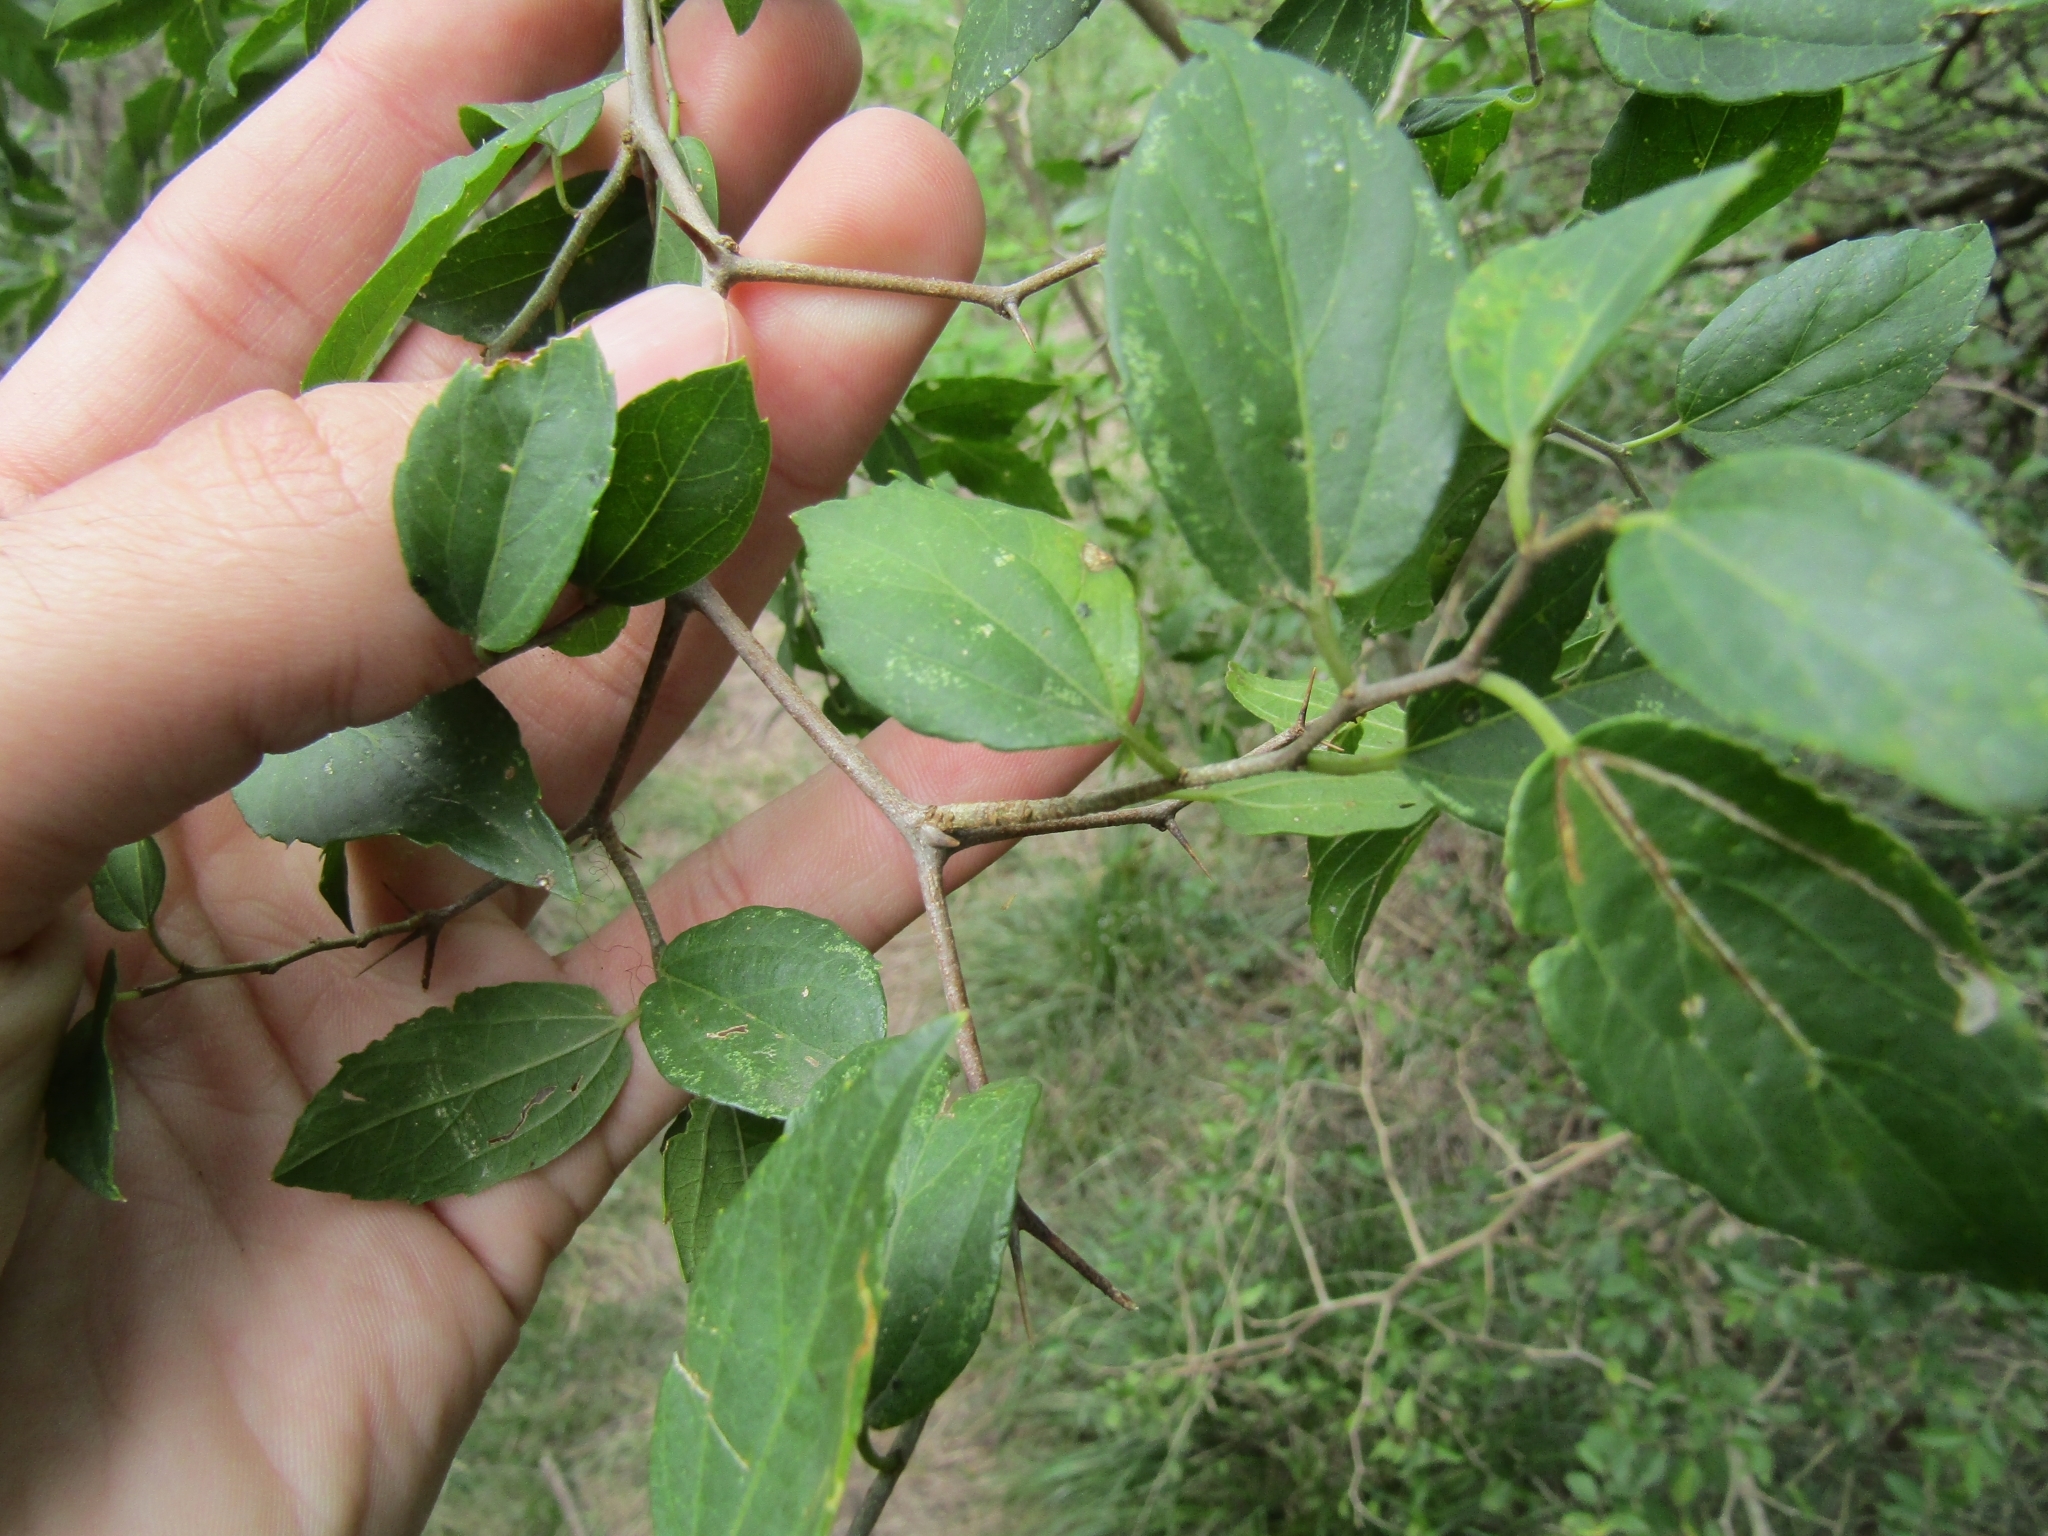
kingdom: Plantae
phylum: Tracheophyta
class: Magnoliopsida
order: Rosales
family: Cannabaceae
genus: Celtis
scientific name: Celtis tala
